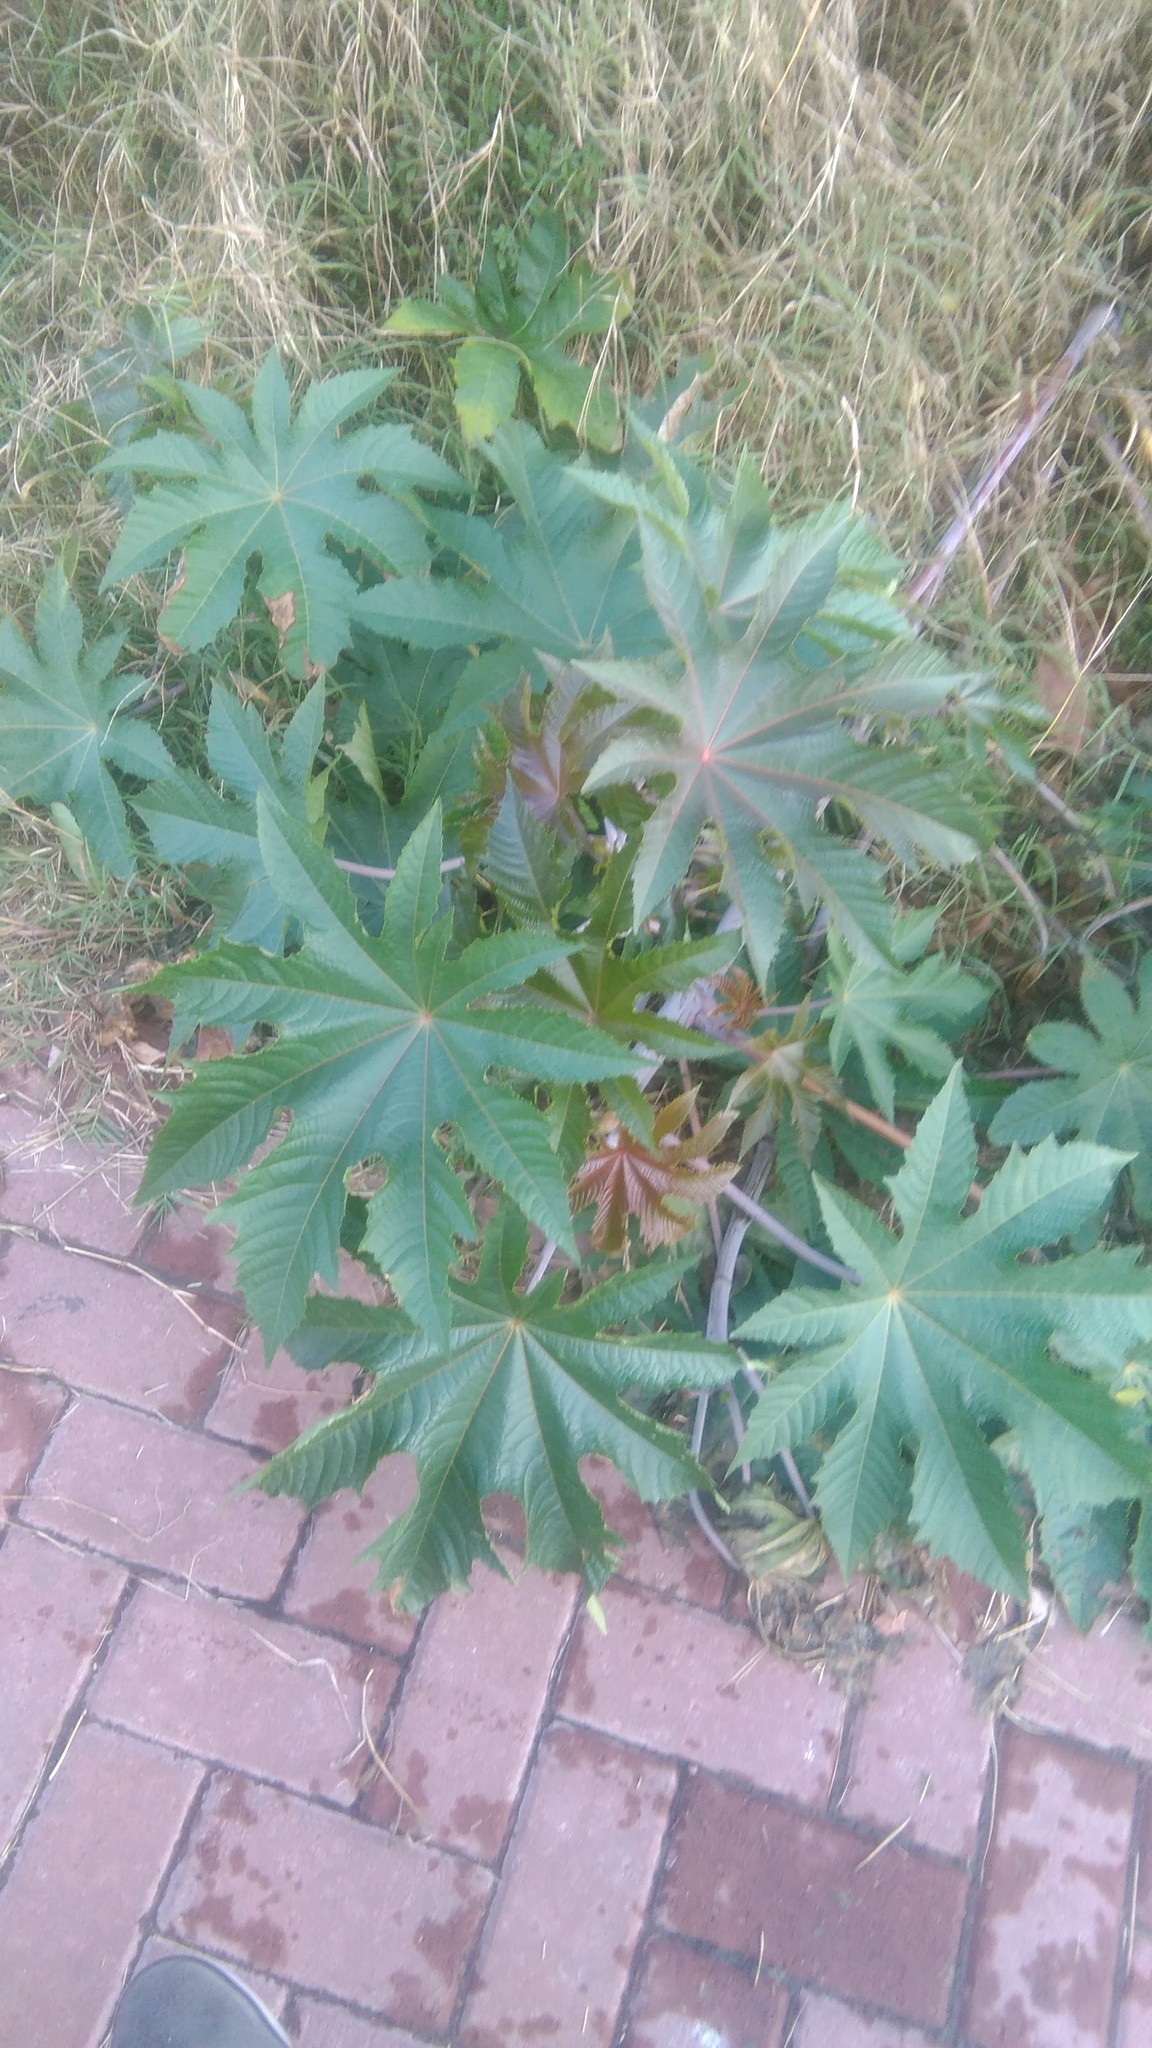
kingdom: Plantae
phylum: Tracheophyta
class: Magnoliopsida
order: Malpighiales
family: Euphorbiaceae
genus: Ricinus
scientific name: Ricinus communis
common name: Castor-oil-plant
